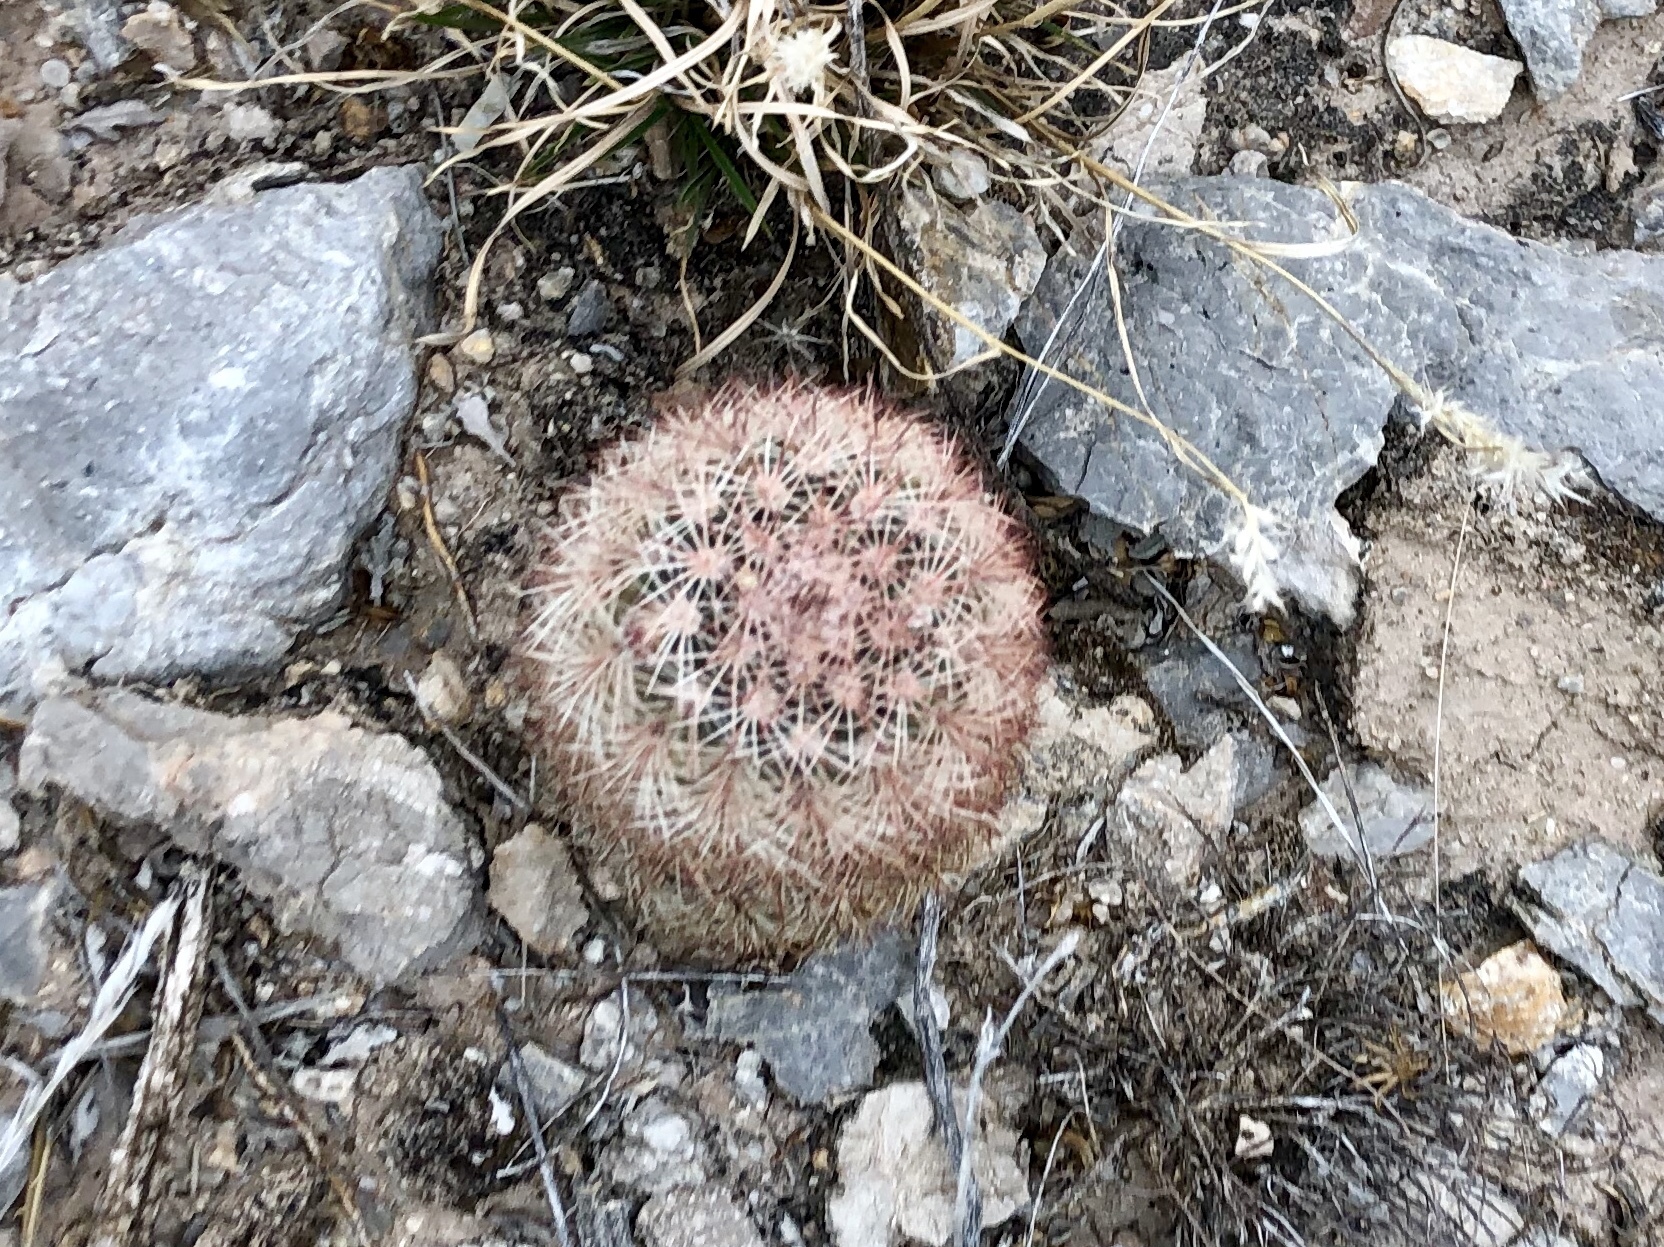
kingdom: Plantae
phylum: Tracheophyta
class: Magnoliopsida
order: Caryophyllales
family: Cactaceae
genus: Echinocereus
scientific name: Echinocereus dasyacanthus
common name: Spiny hedgehog cactus
